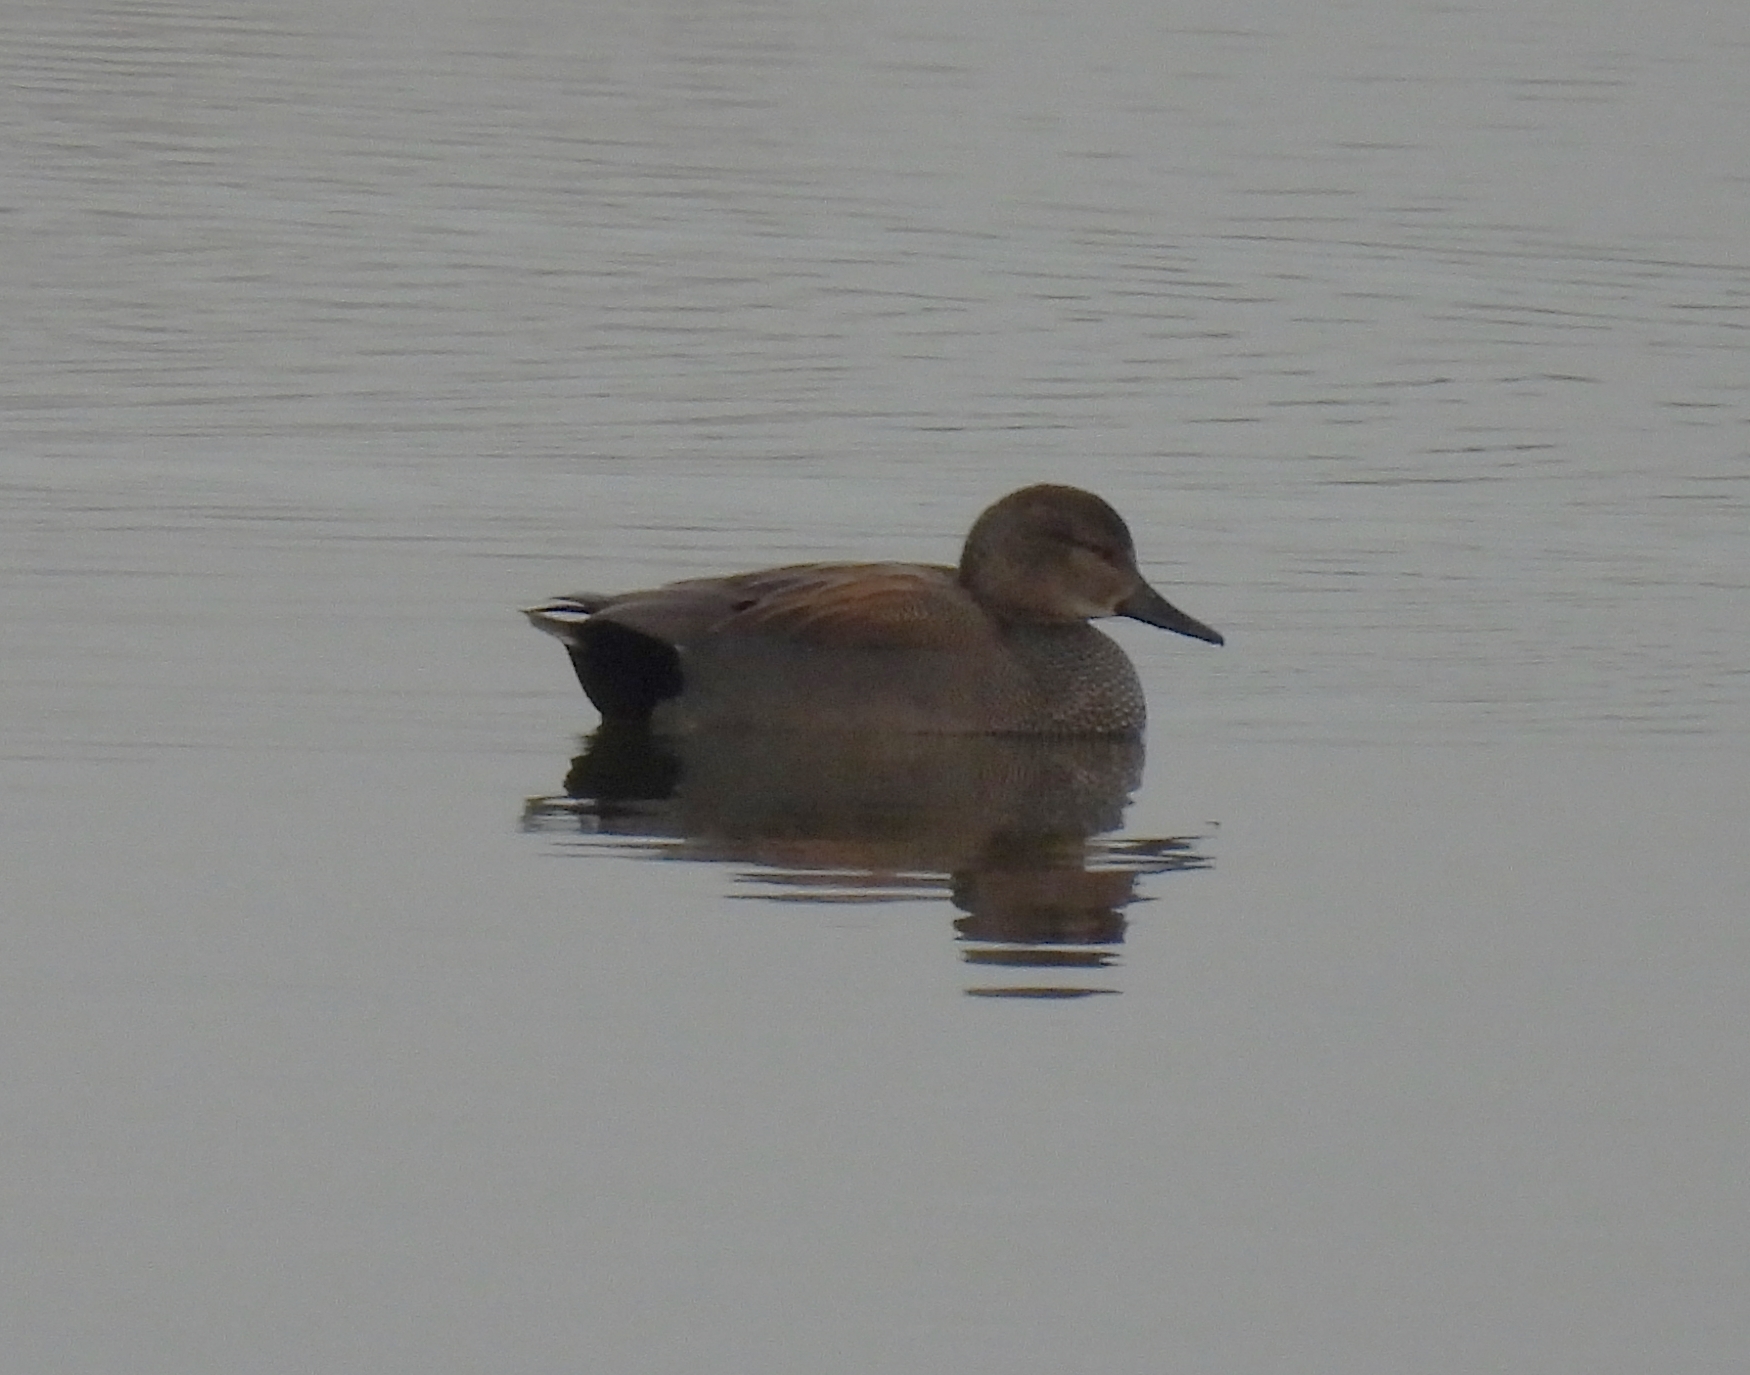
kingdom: Animalia
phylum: Chordata
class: Aves
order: Anseriformes
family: Anatidae
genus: Mareca
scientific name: Mareca strepera
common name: Gadwall
